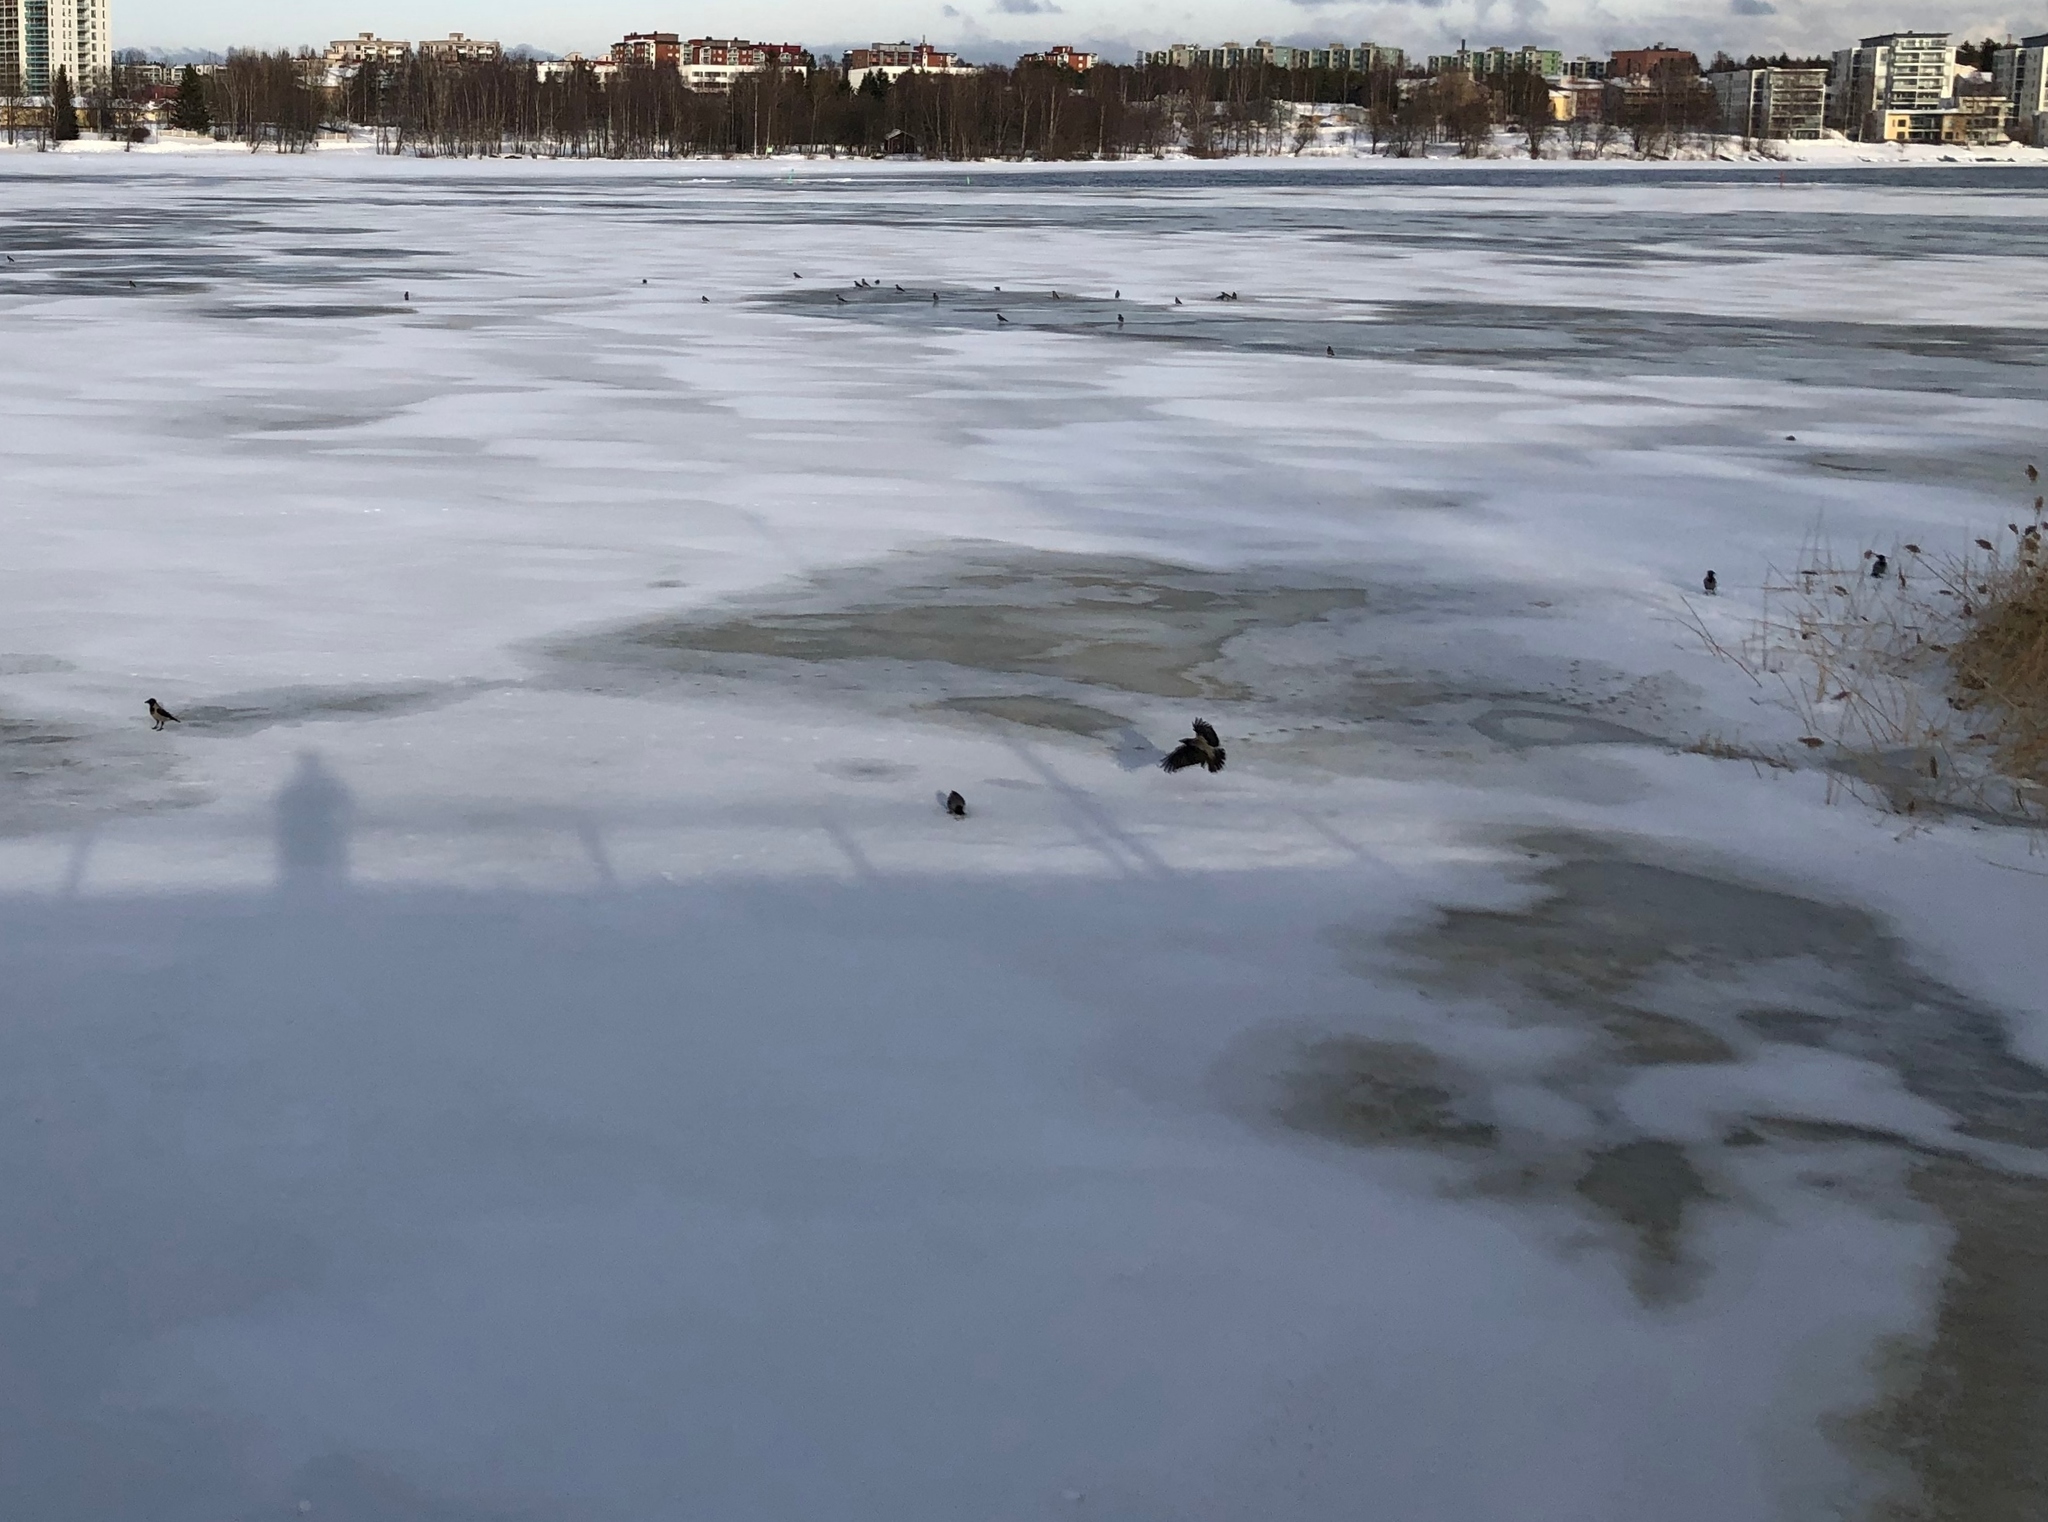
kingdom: Animalia
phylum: Chordata
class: Aves
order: Passeriformes
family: Corvidae
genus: Corvus
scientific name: Corvus cornix
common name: Hooded crow
